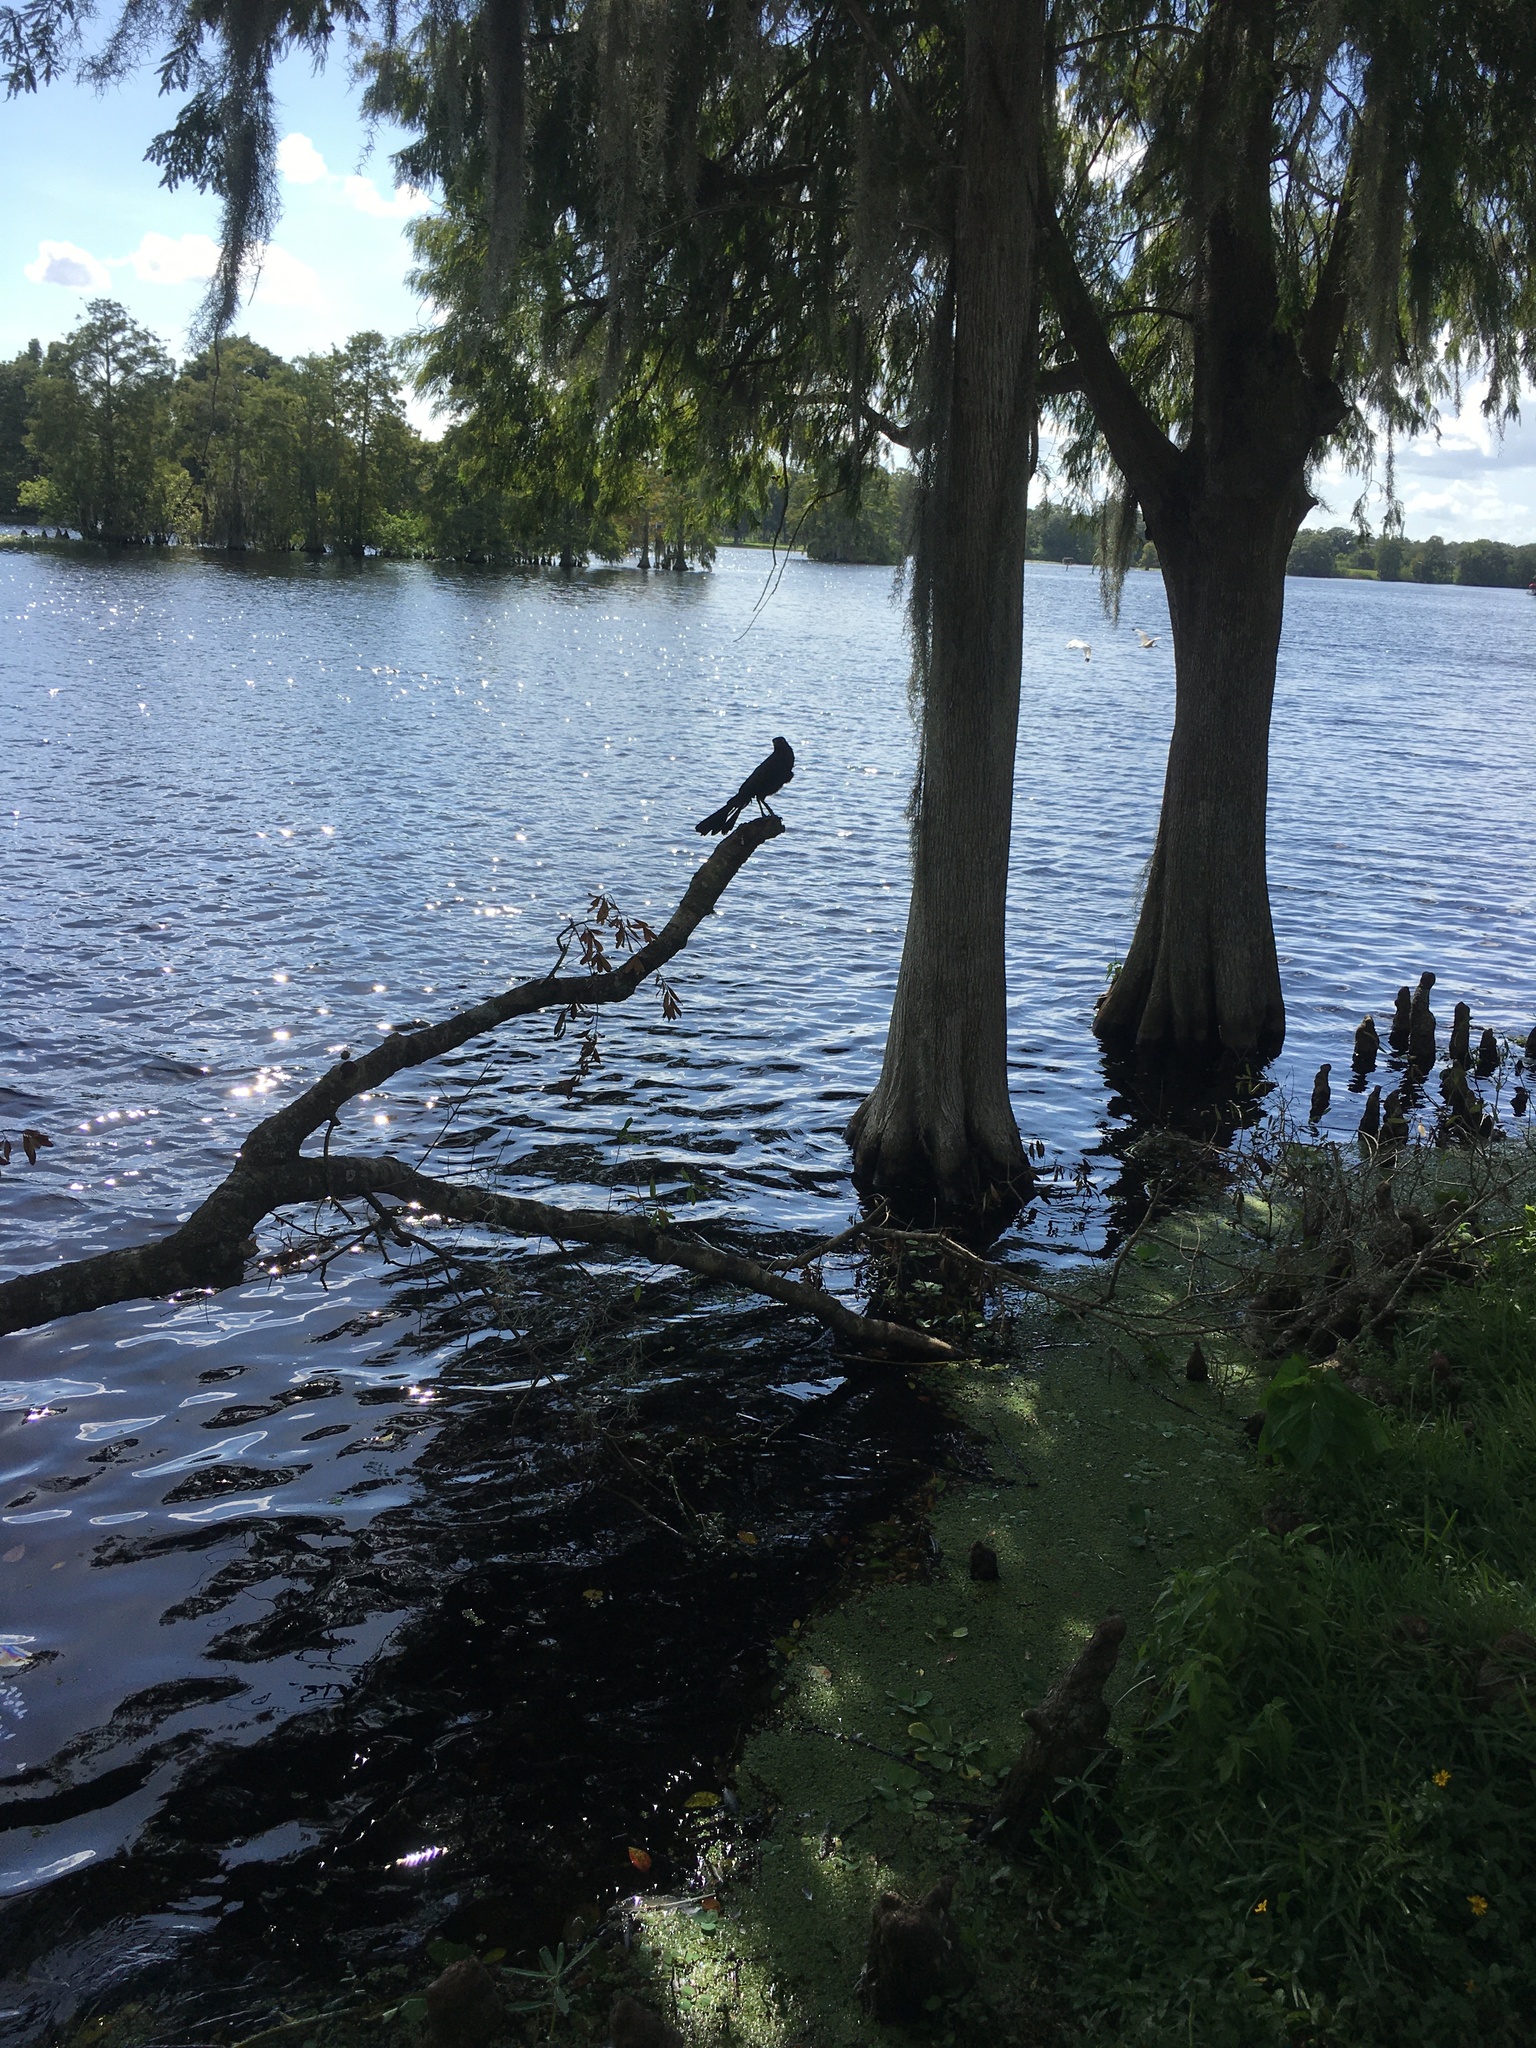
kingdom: Animalia
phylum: Chordata
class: Aves
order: Passeriformes
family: Icteridae
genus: Quiscalus
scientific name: Quiscalus major
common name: Boat-tailed grackle
